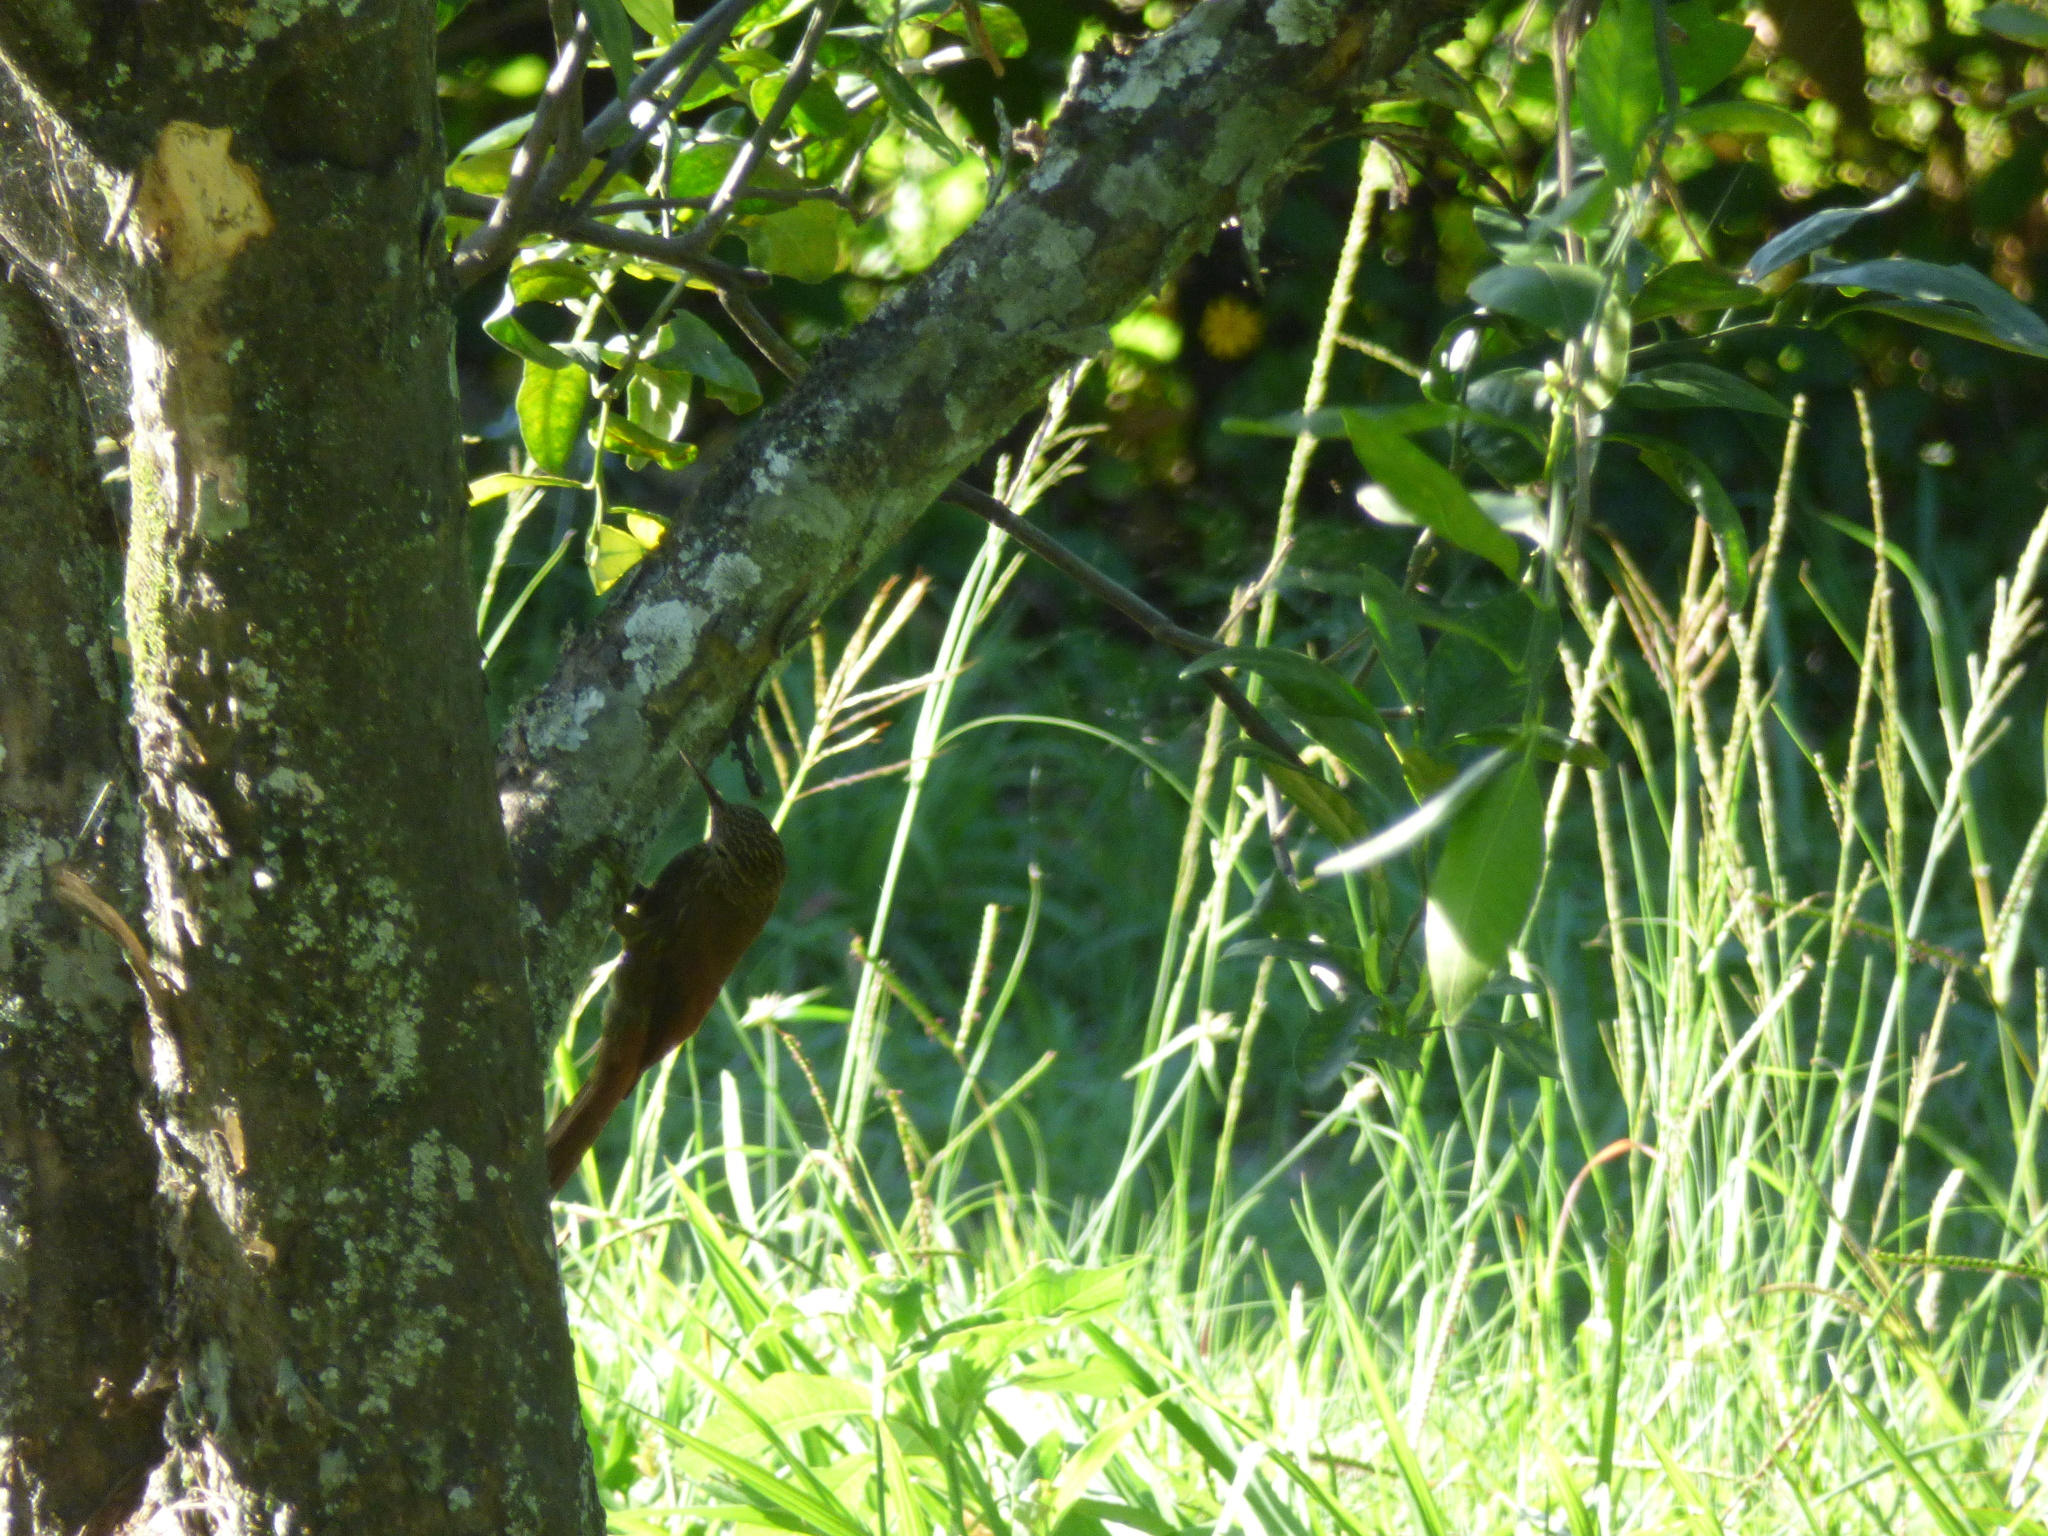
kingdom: Animalia
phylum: Chordata
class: Aves
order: Passeriformes
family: Furnariidae
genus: Lepidocolaptes
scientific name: Lepidocolaptes souleyetii
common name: Streak-headed woodcreeper
